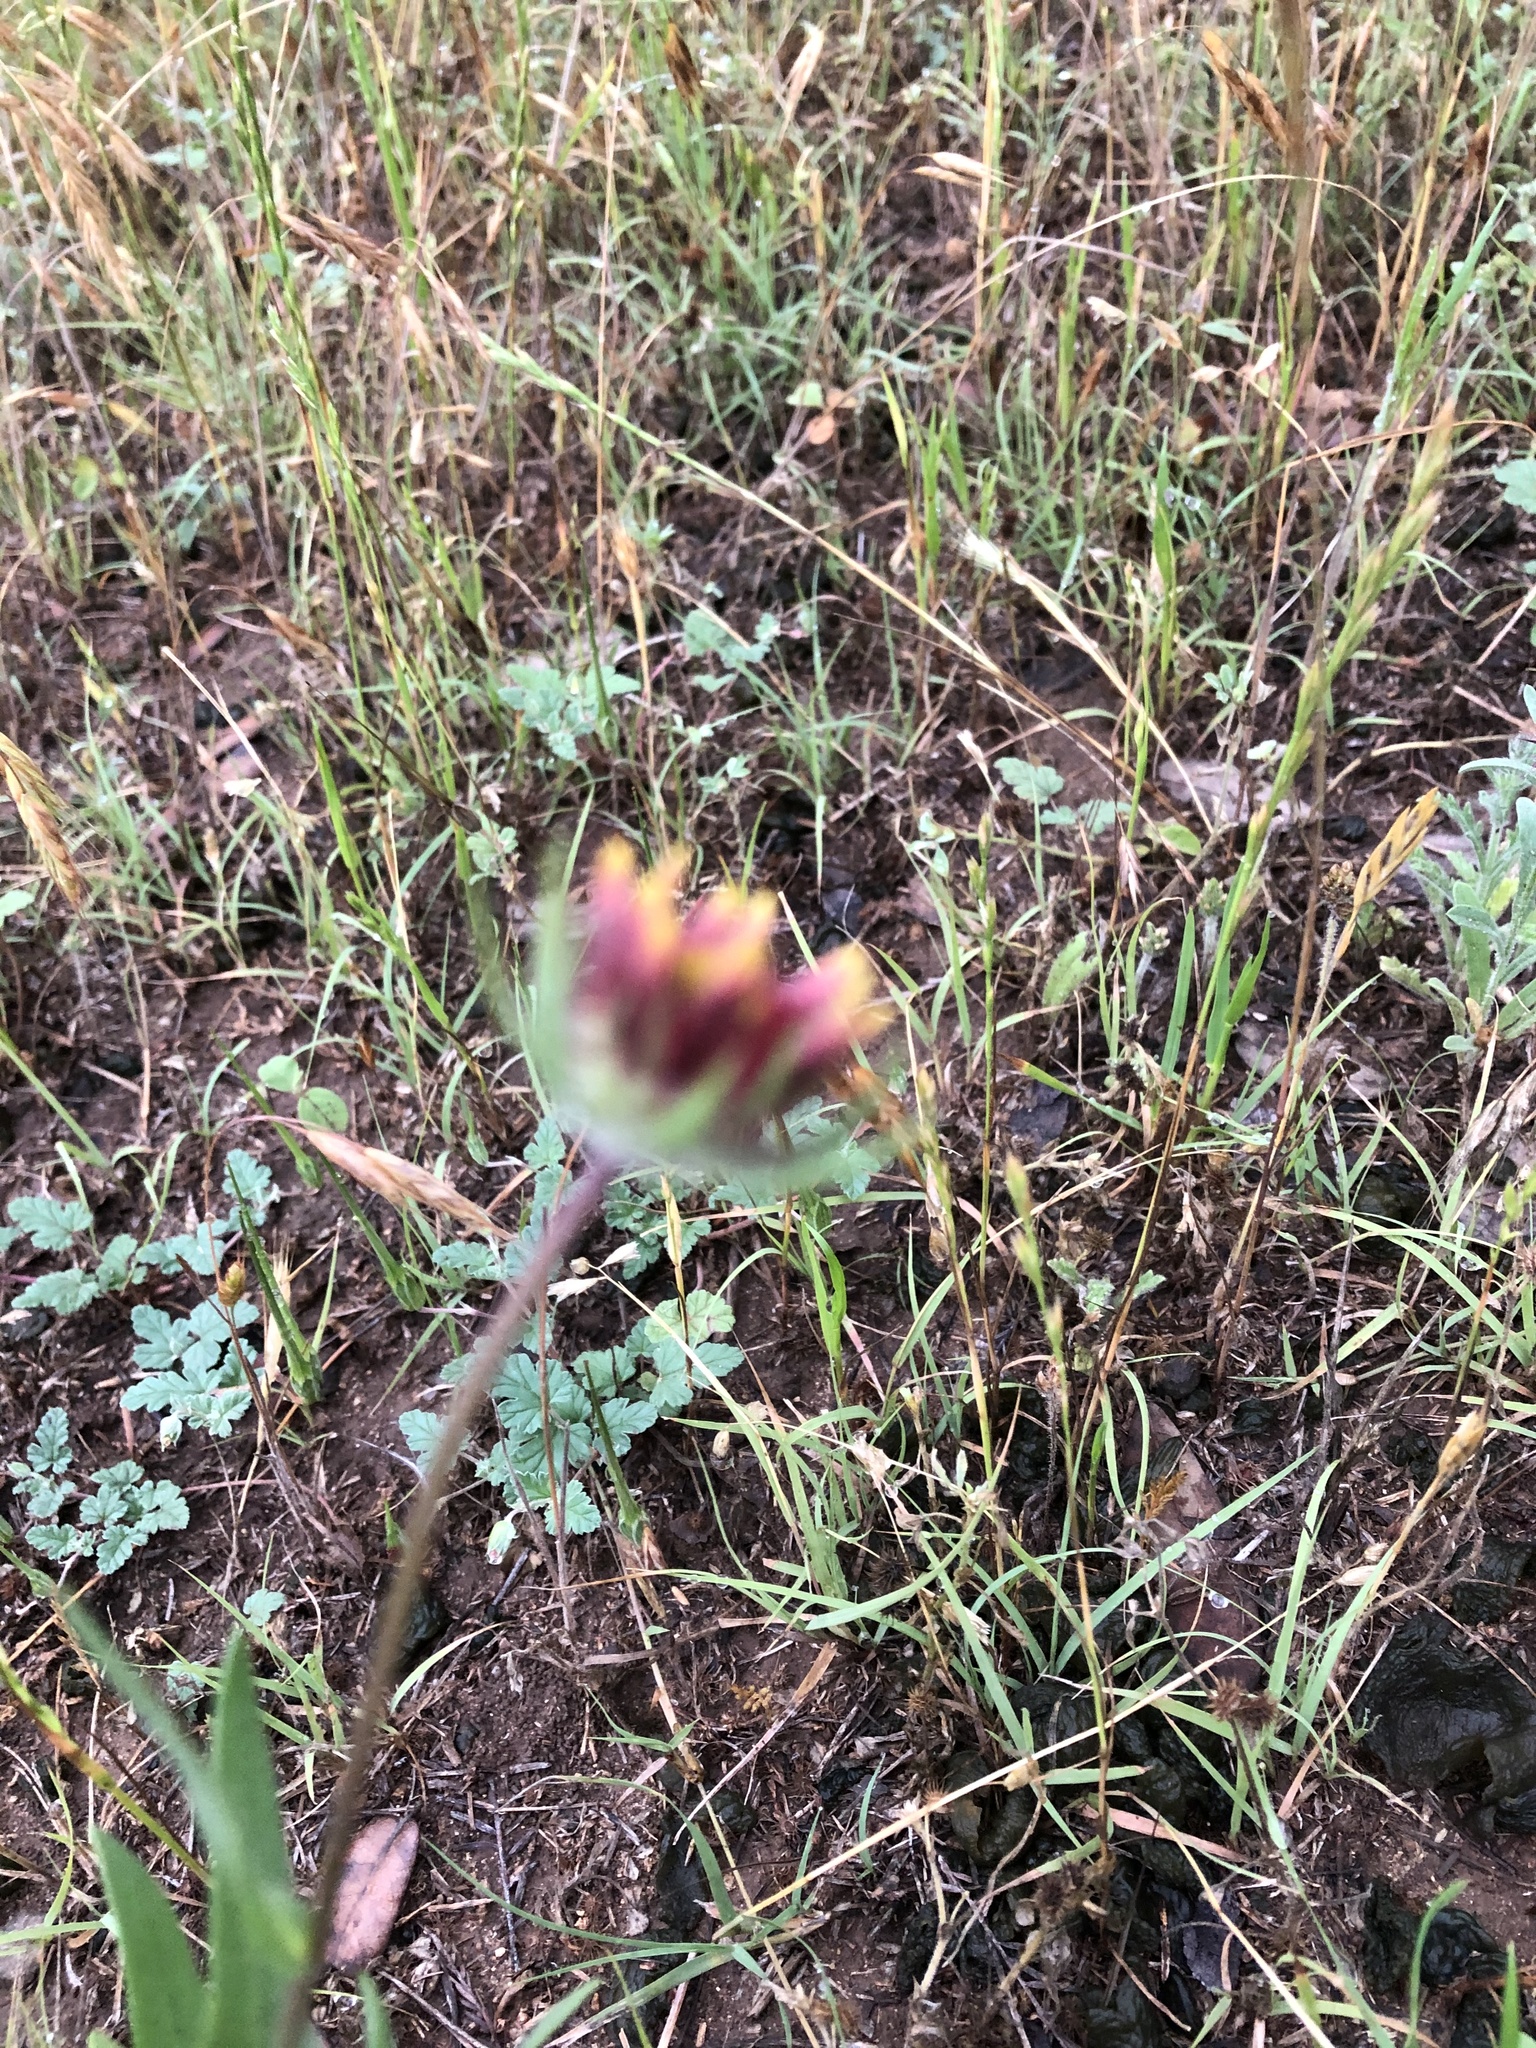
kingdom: Plantae
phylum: Tracheophyta
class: Magnoliopsida
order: Asterales
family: Asteraceae
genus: Gaillardia
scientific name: Gaillardia pulchella
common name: Firewheel
